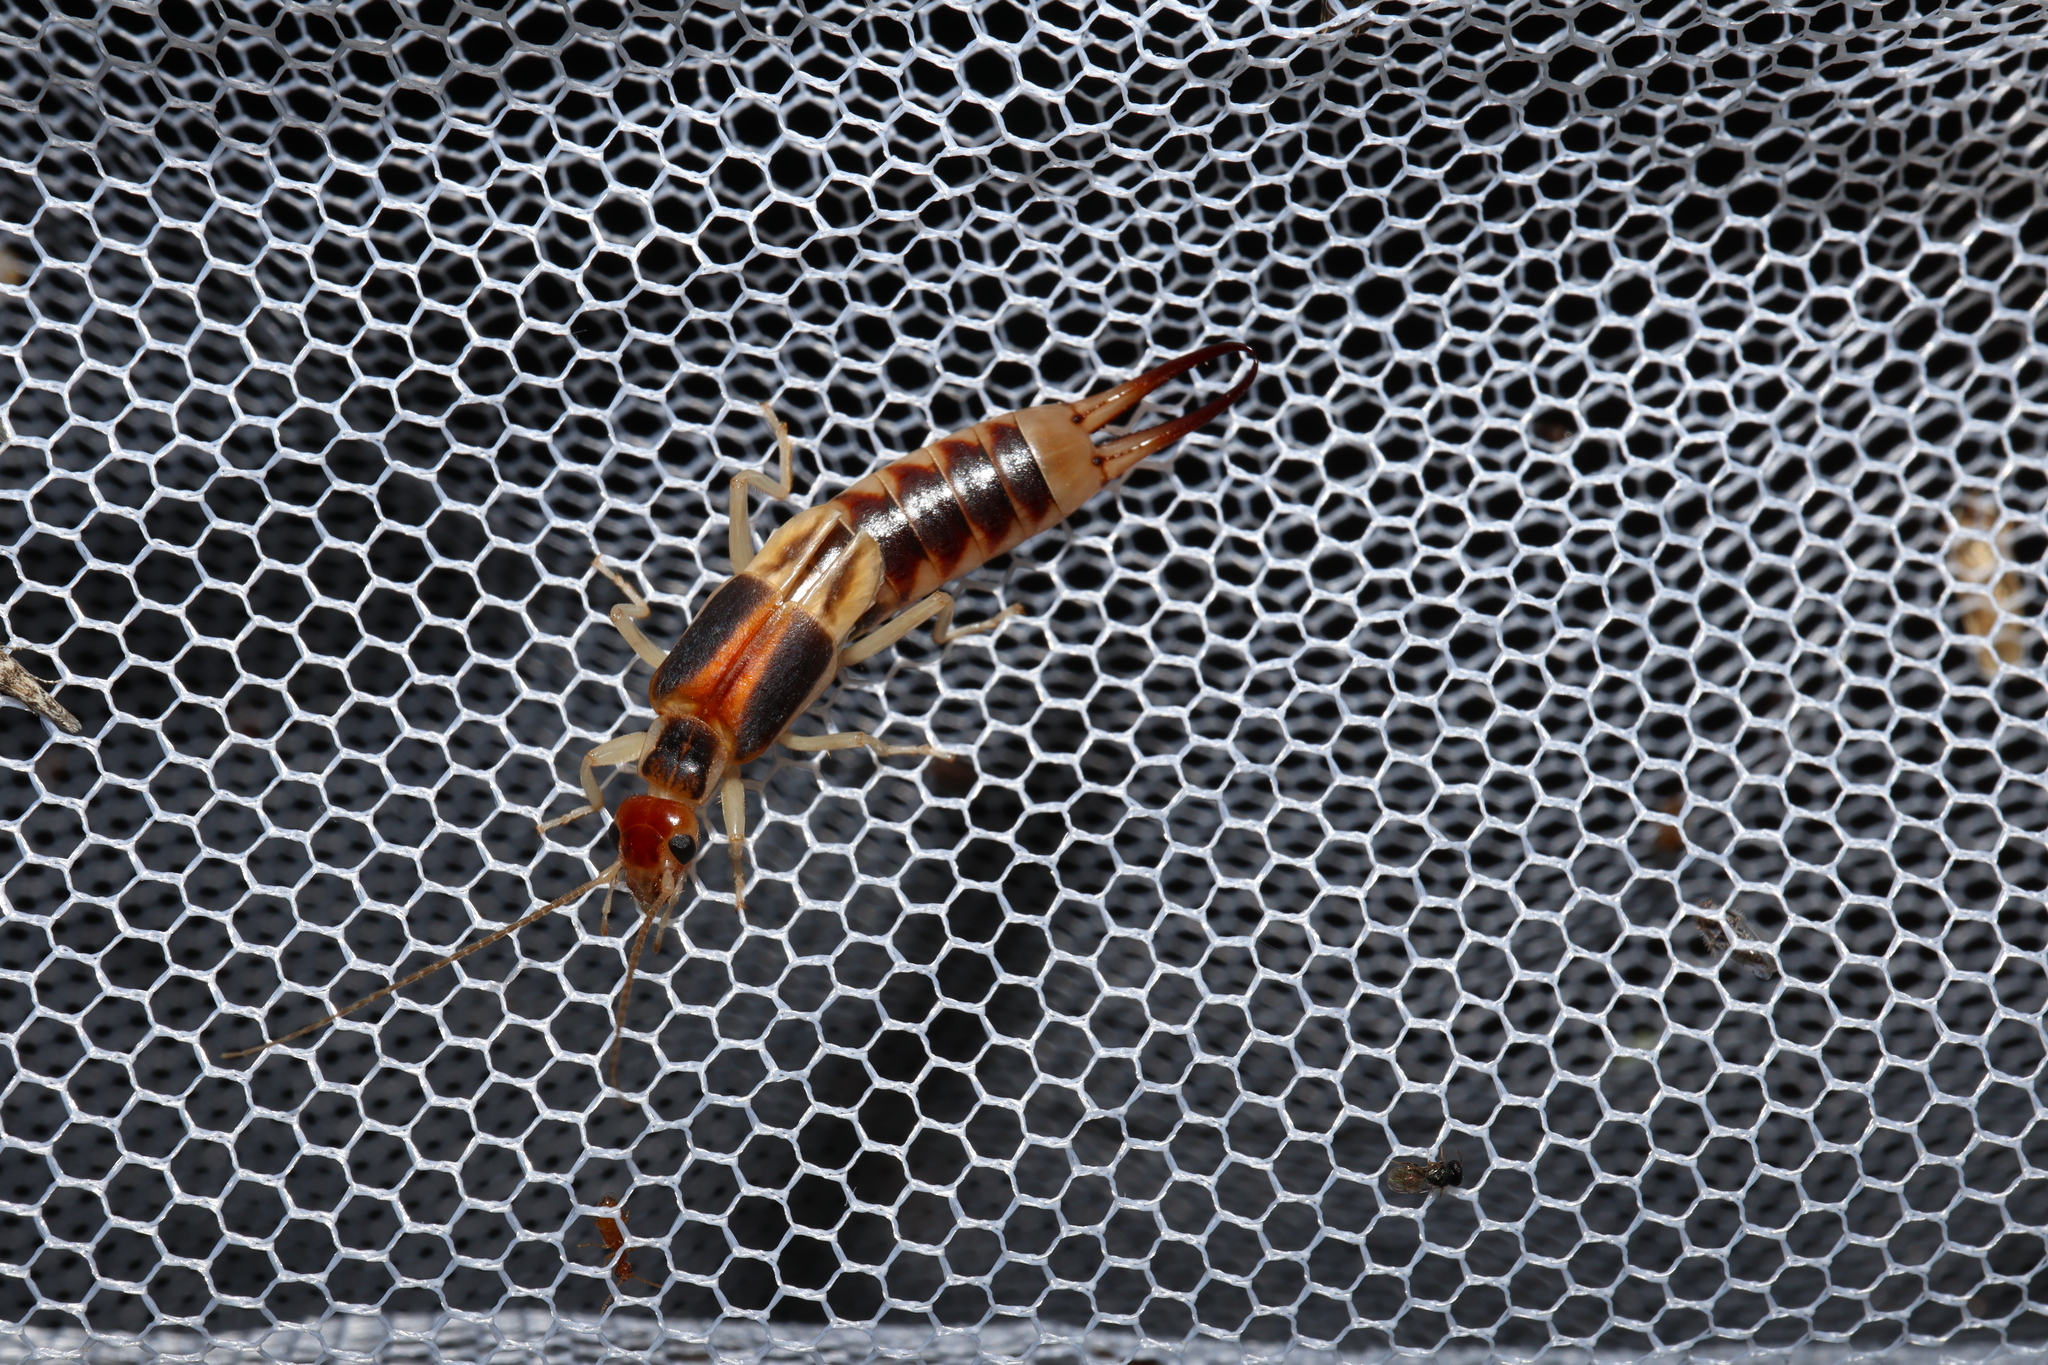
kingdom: Animalia
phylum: Arthropoda
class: Insecta
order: Dermaptera
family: Labiduridae
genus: Labidura
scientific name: Labidura riparia
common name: Striped earwig
